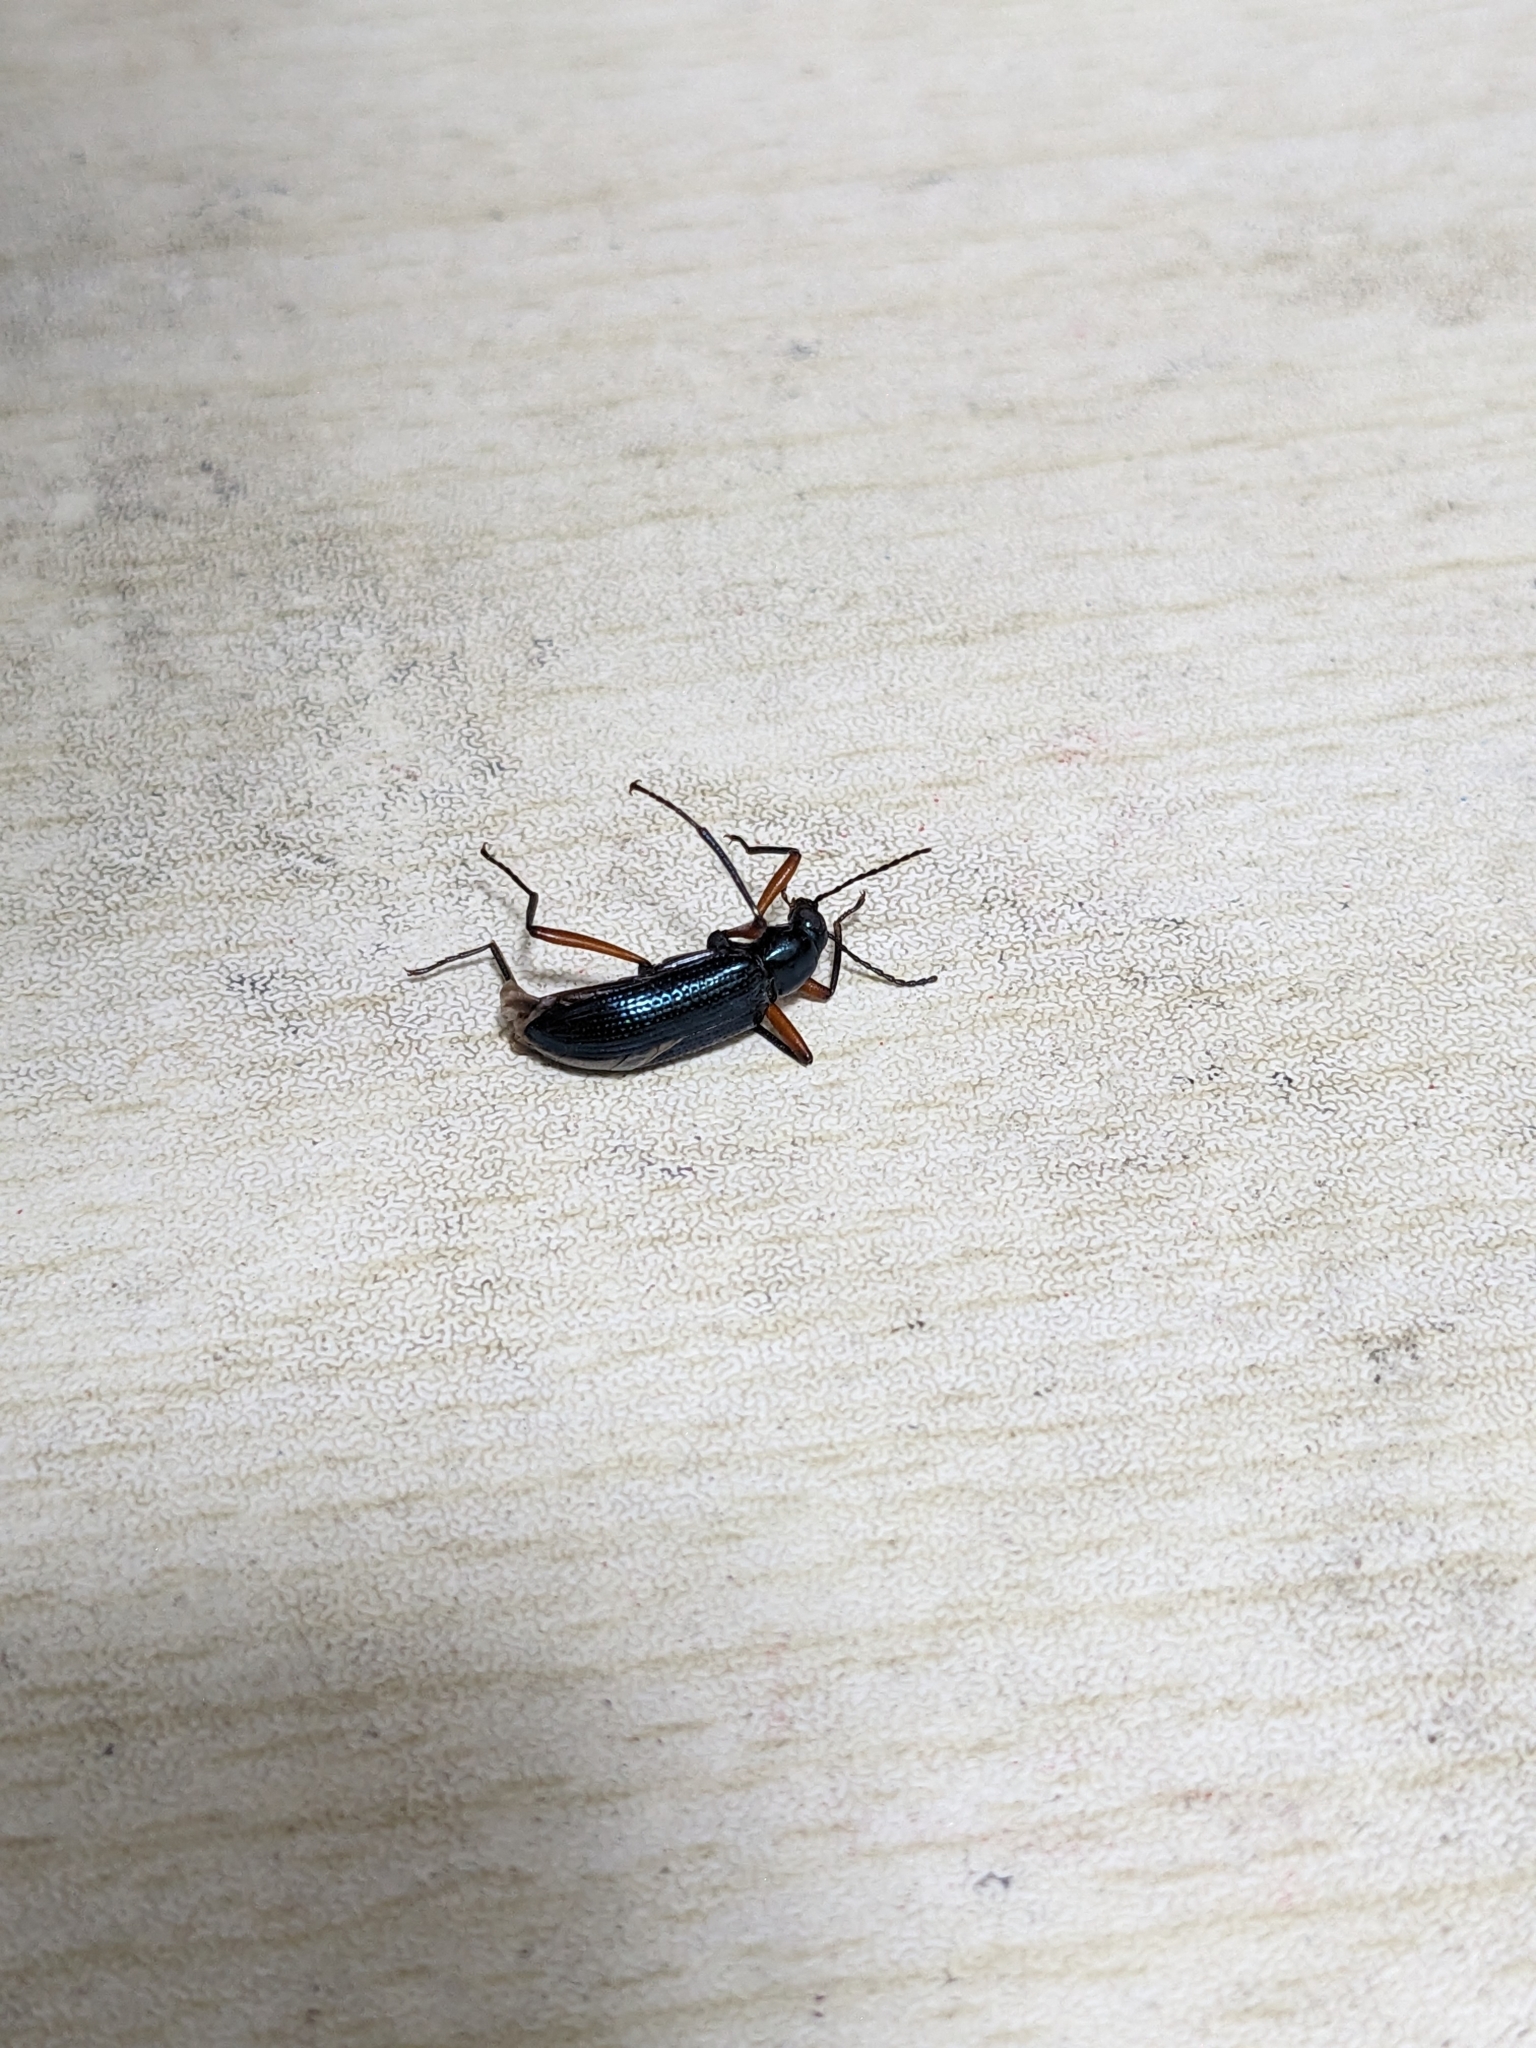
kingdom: Animalia
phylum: Arthropoda
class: Insecta
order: Coleoptera
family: Tenebrionidae
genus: Strongylium
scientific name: Strongylium erythrocephalum
